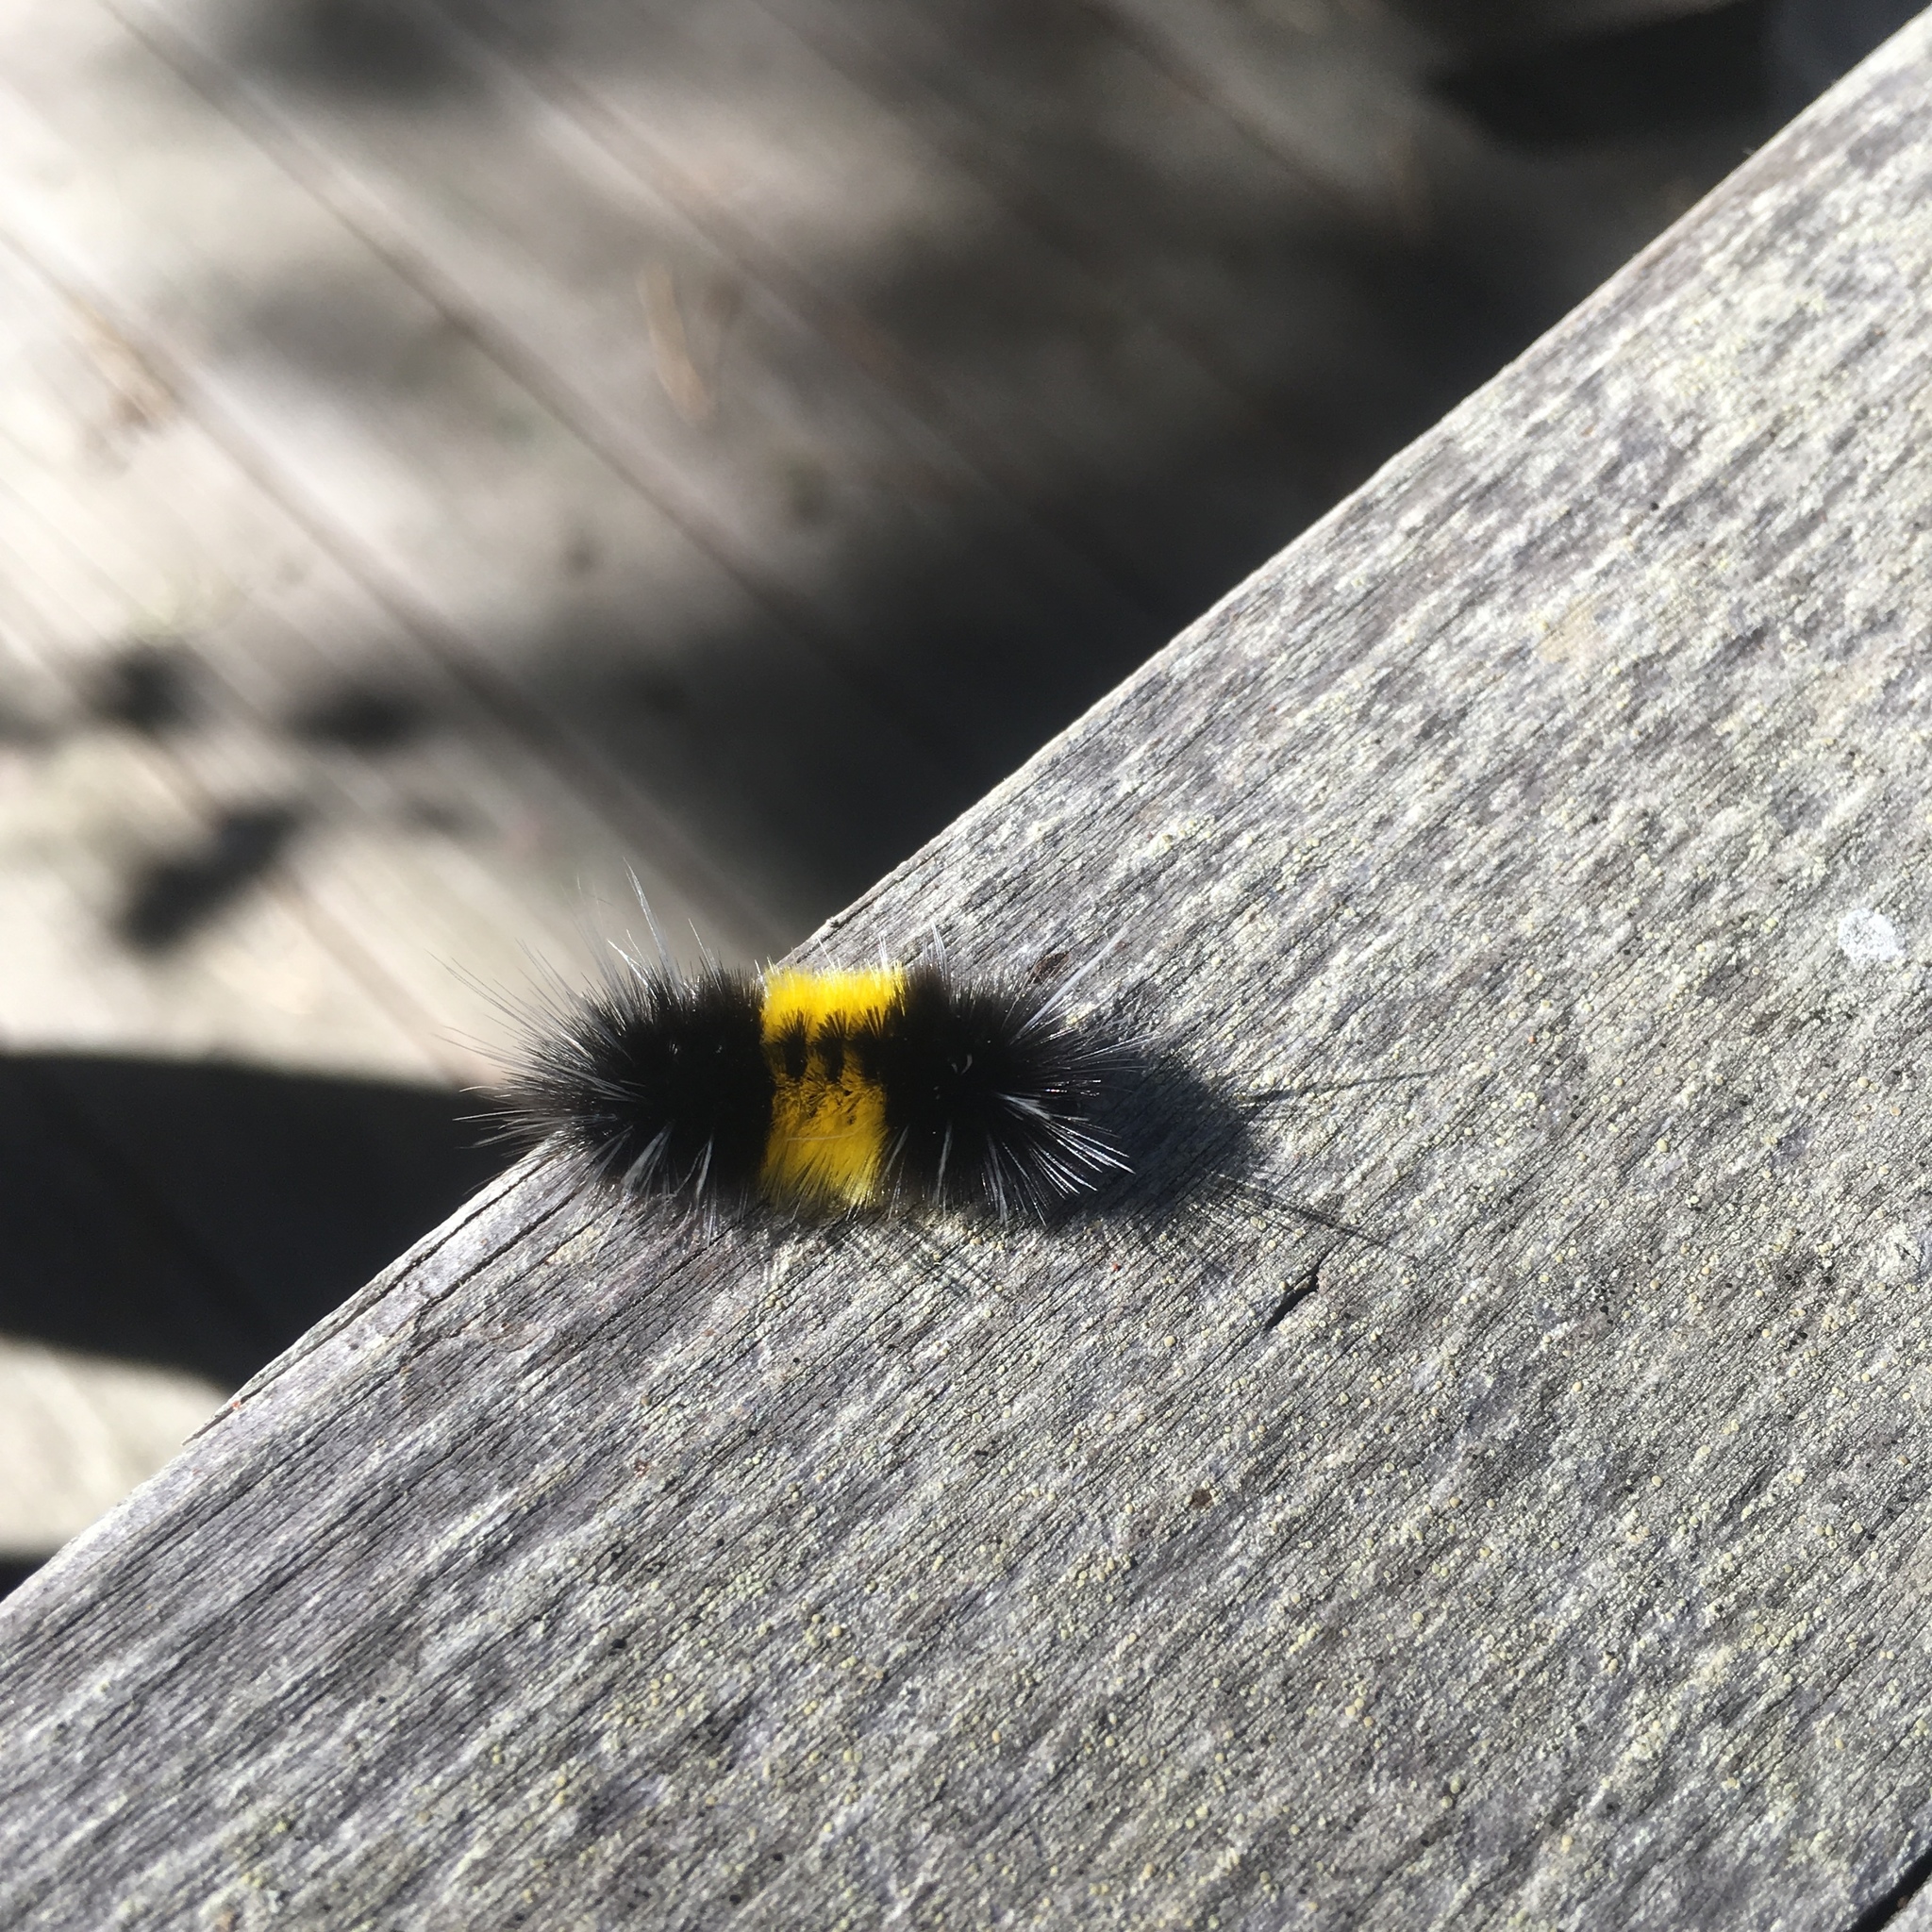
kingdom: Animalia
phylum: Arthropoda
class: Insecta
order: Lepidoptera
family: Erebidae
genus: Lophocampa
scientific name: Lophocampa maculata
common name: Spotted tussock moth
